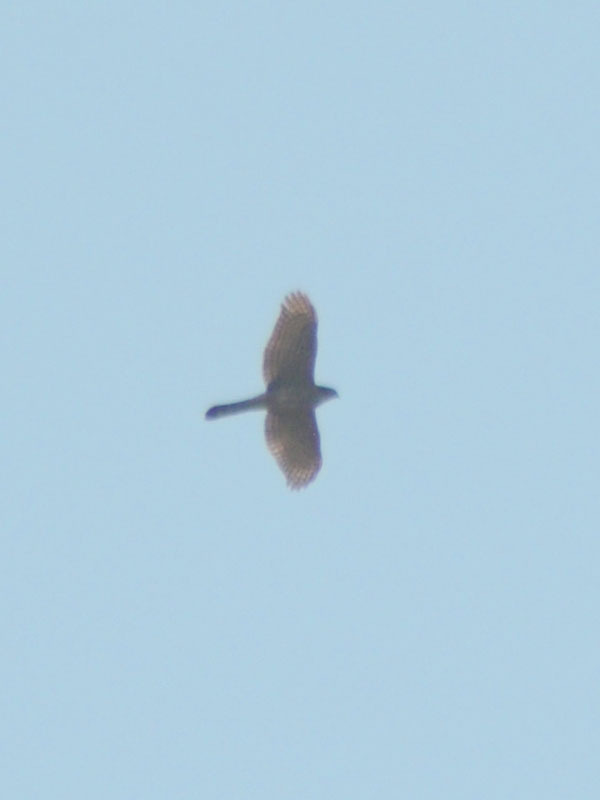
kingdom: Animalia
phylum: Chordata
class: Aves
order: Accipitriformes
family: Accipitridae
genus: Accipiter
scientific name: Accipiter cooperii
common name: Cooper's hawk
